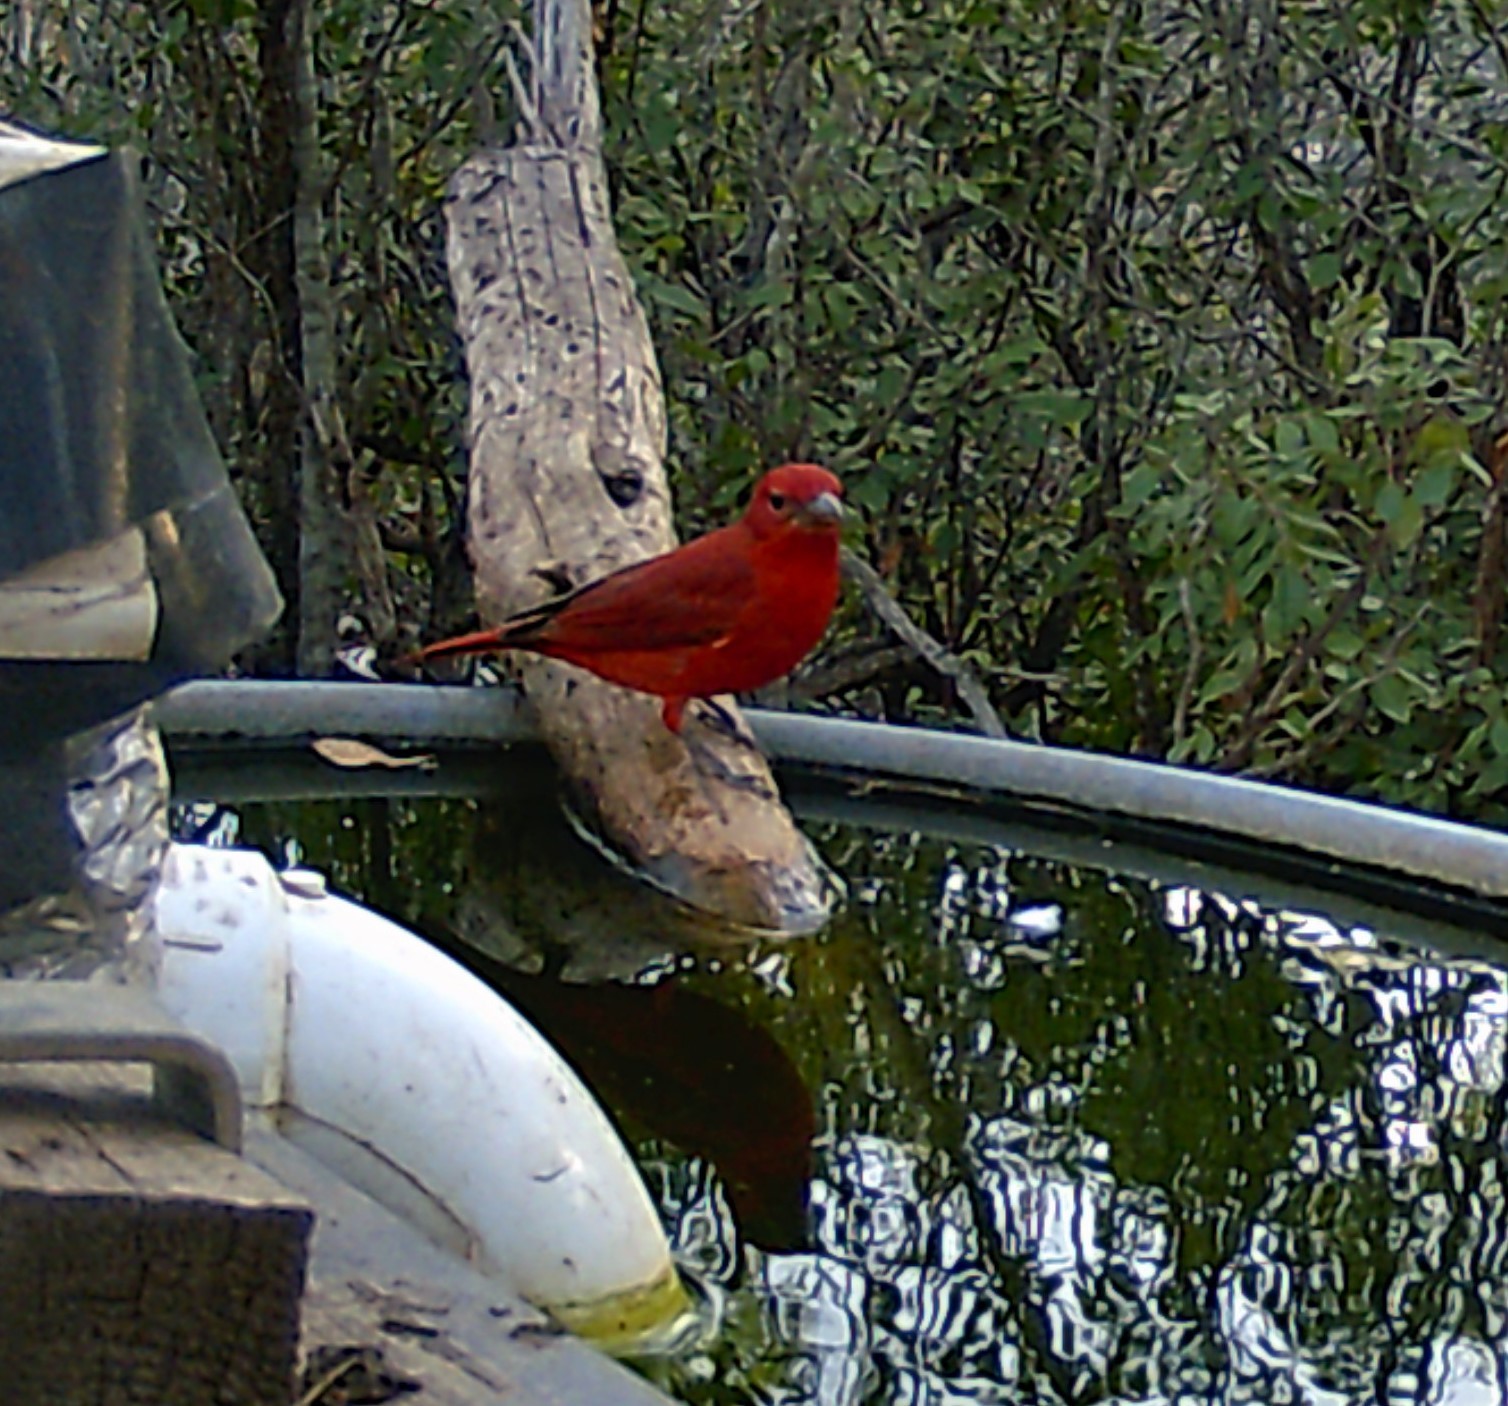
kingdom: Animalia
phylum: Chordata
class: Aves
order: Passeriformes
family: Cardinalidae
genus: Piranga
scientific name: Piranga rubra
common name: Summer tanager
